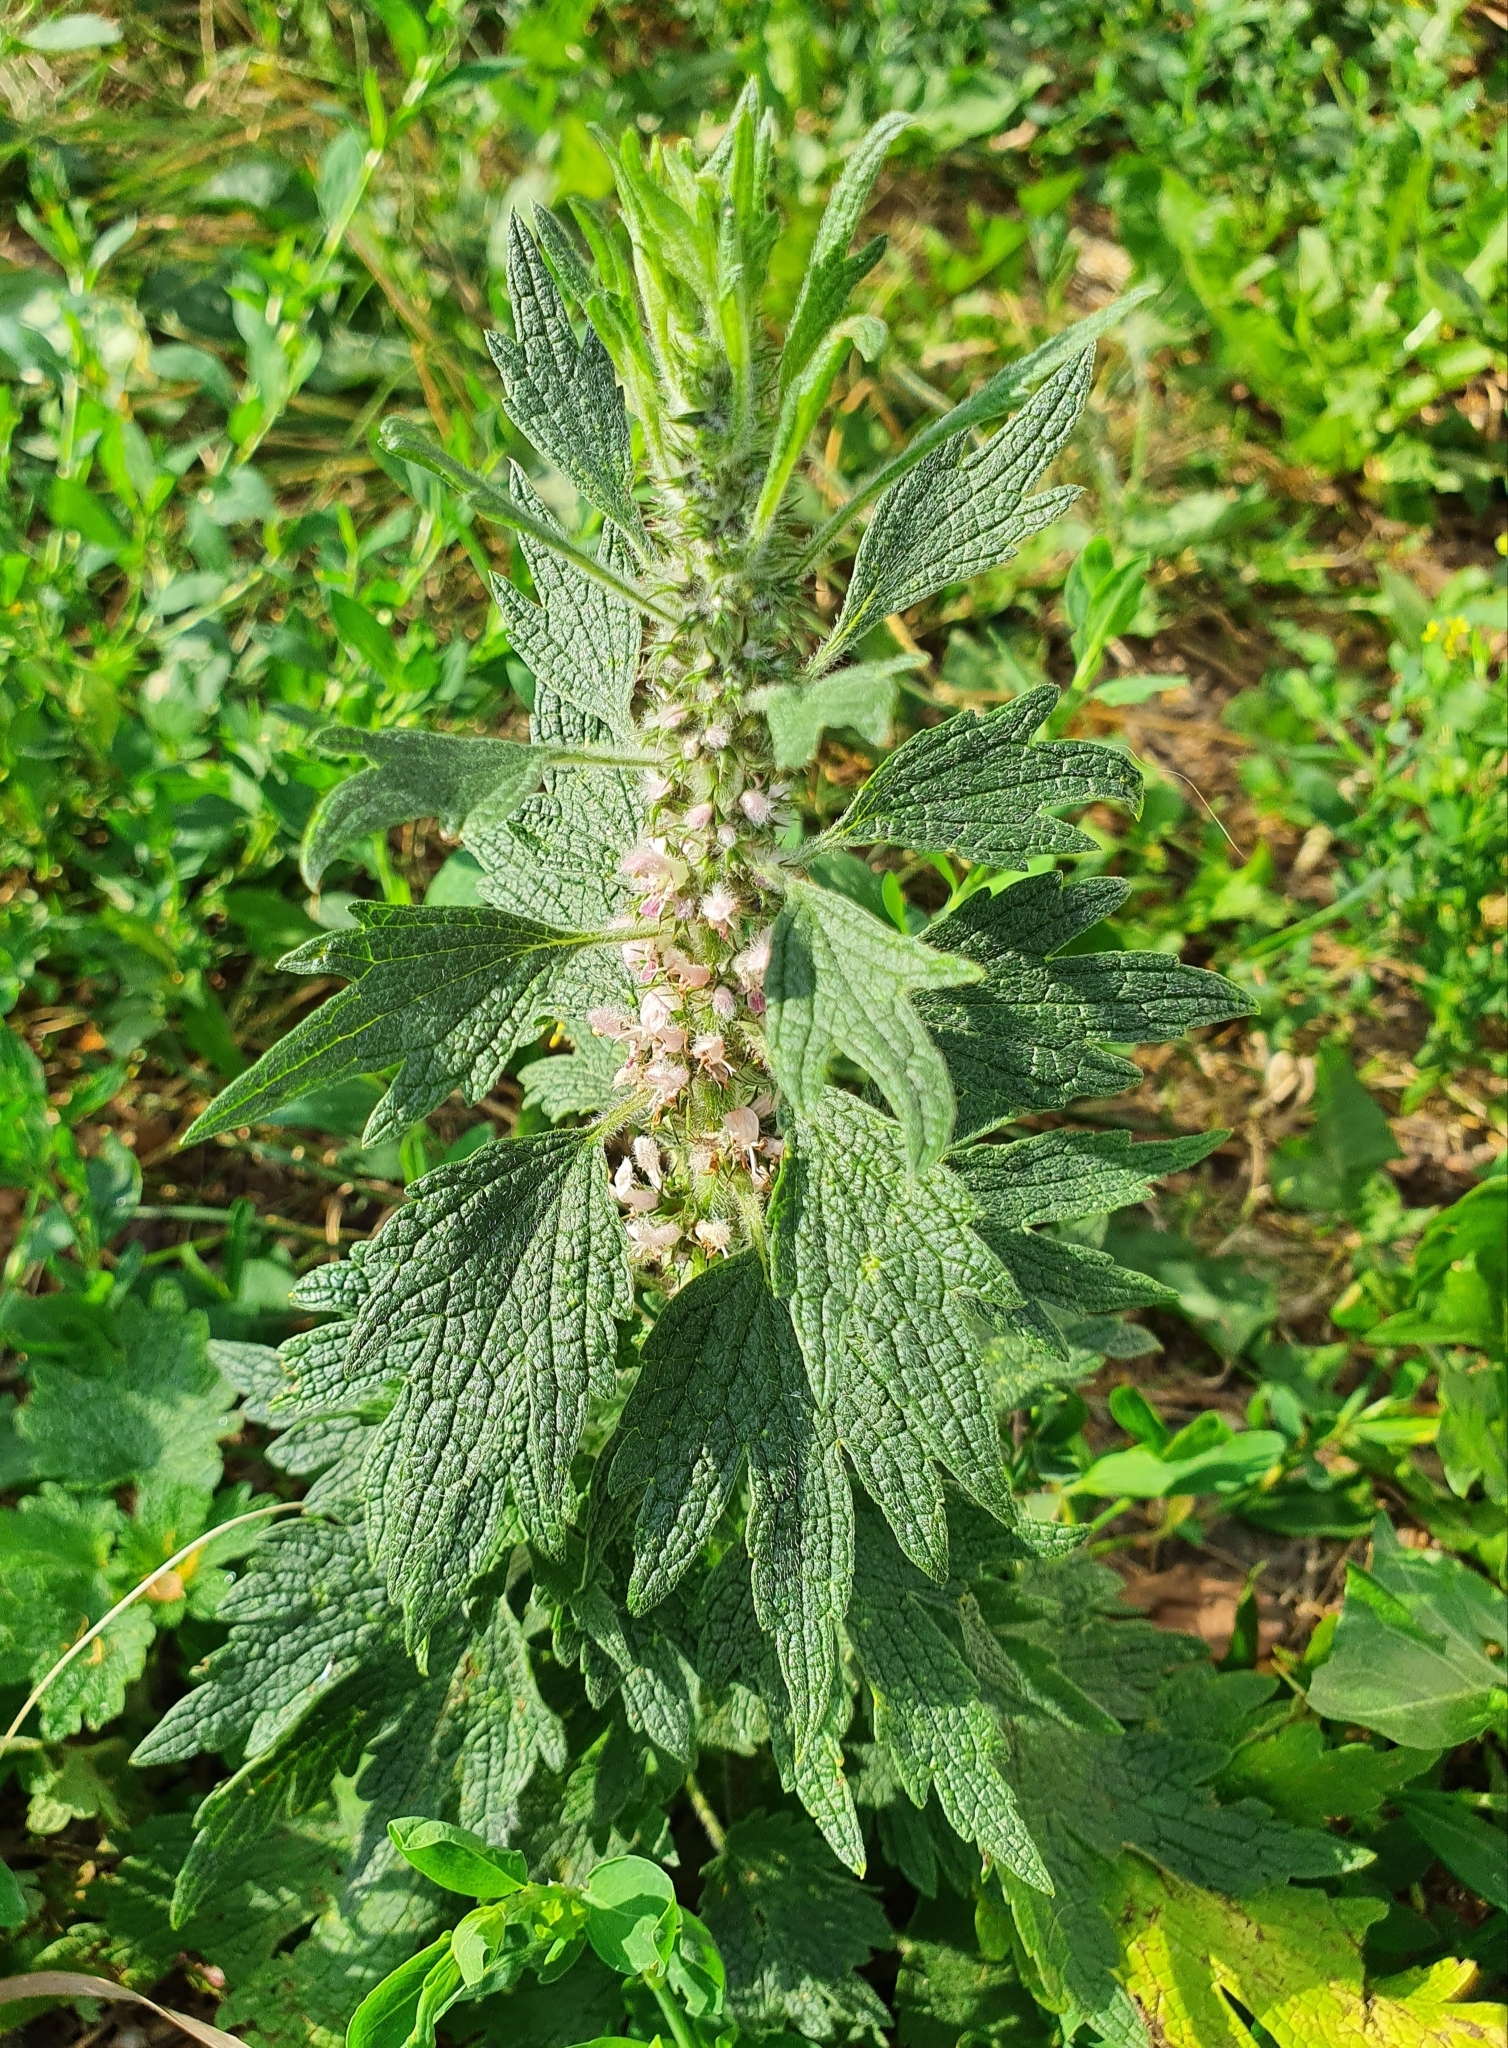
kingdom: Plantae
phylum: Tracheophyta
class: Magnoliopsida
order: Lamiales
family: Lamiaceae
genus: Leonurus
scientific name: Leonurus quinquelobatus
